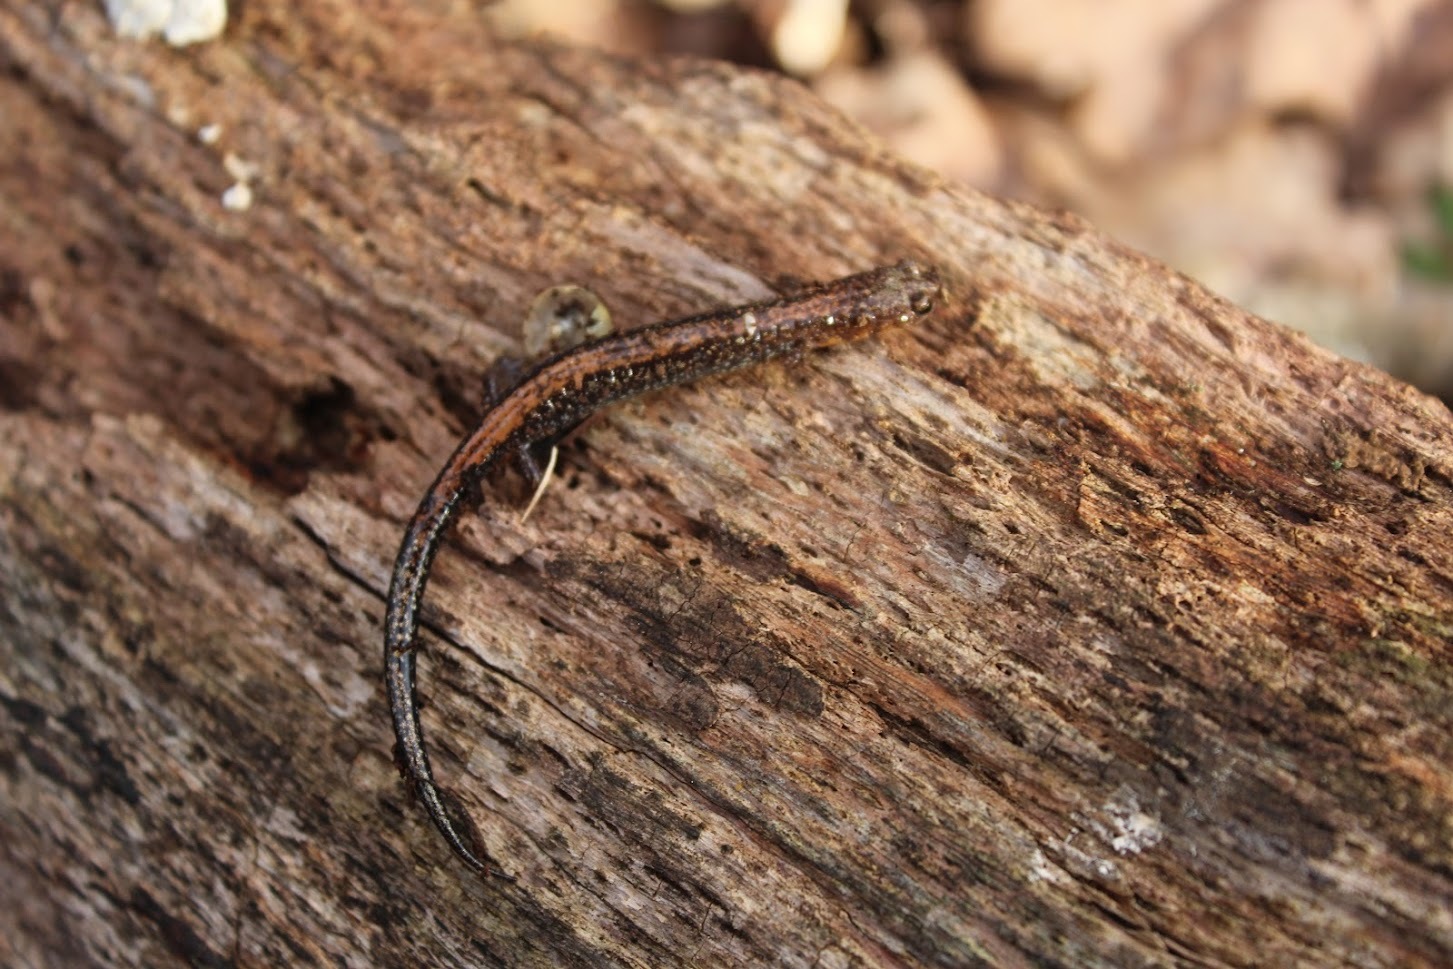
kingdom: Animalia
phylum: Chordata
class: Amphibia
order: Caudata
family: Plethodontidae
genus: Plethodon
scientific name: Plethodon cinereus
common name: Redback salamander
